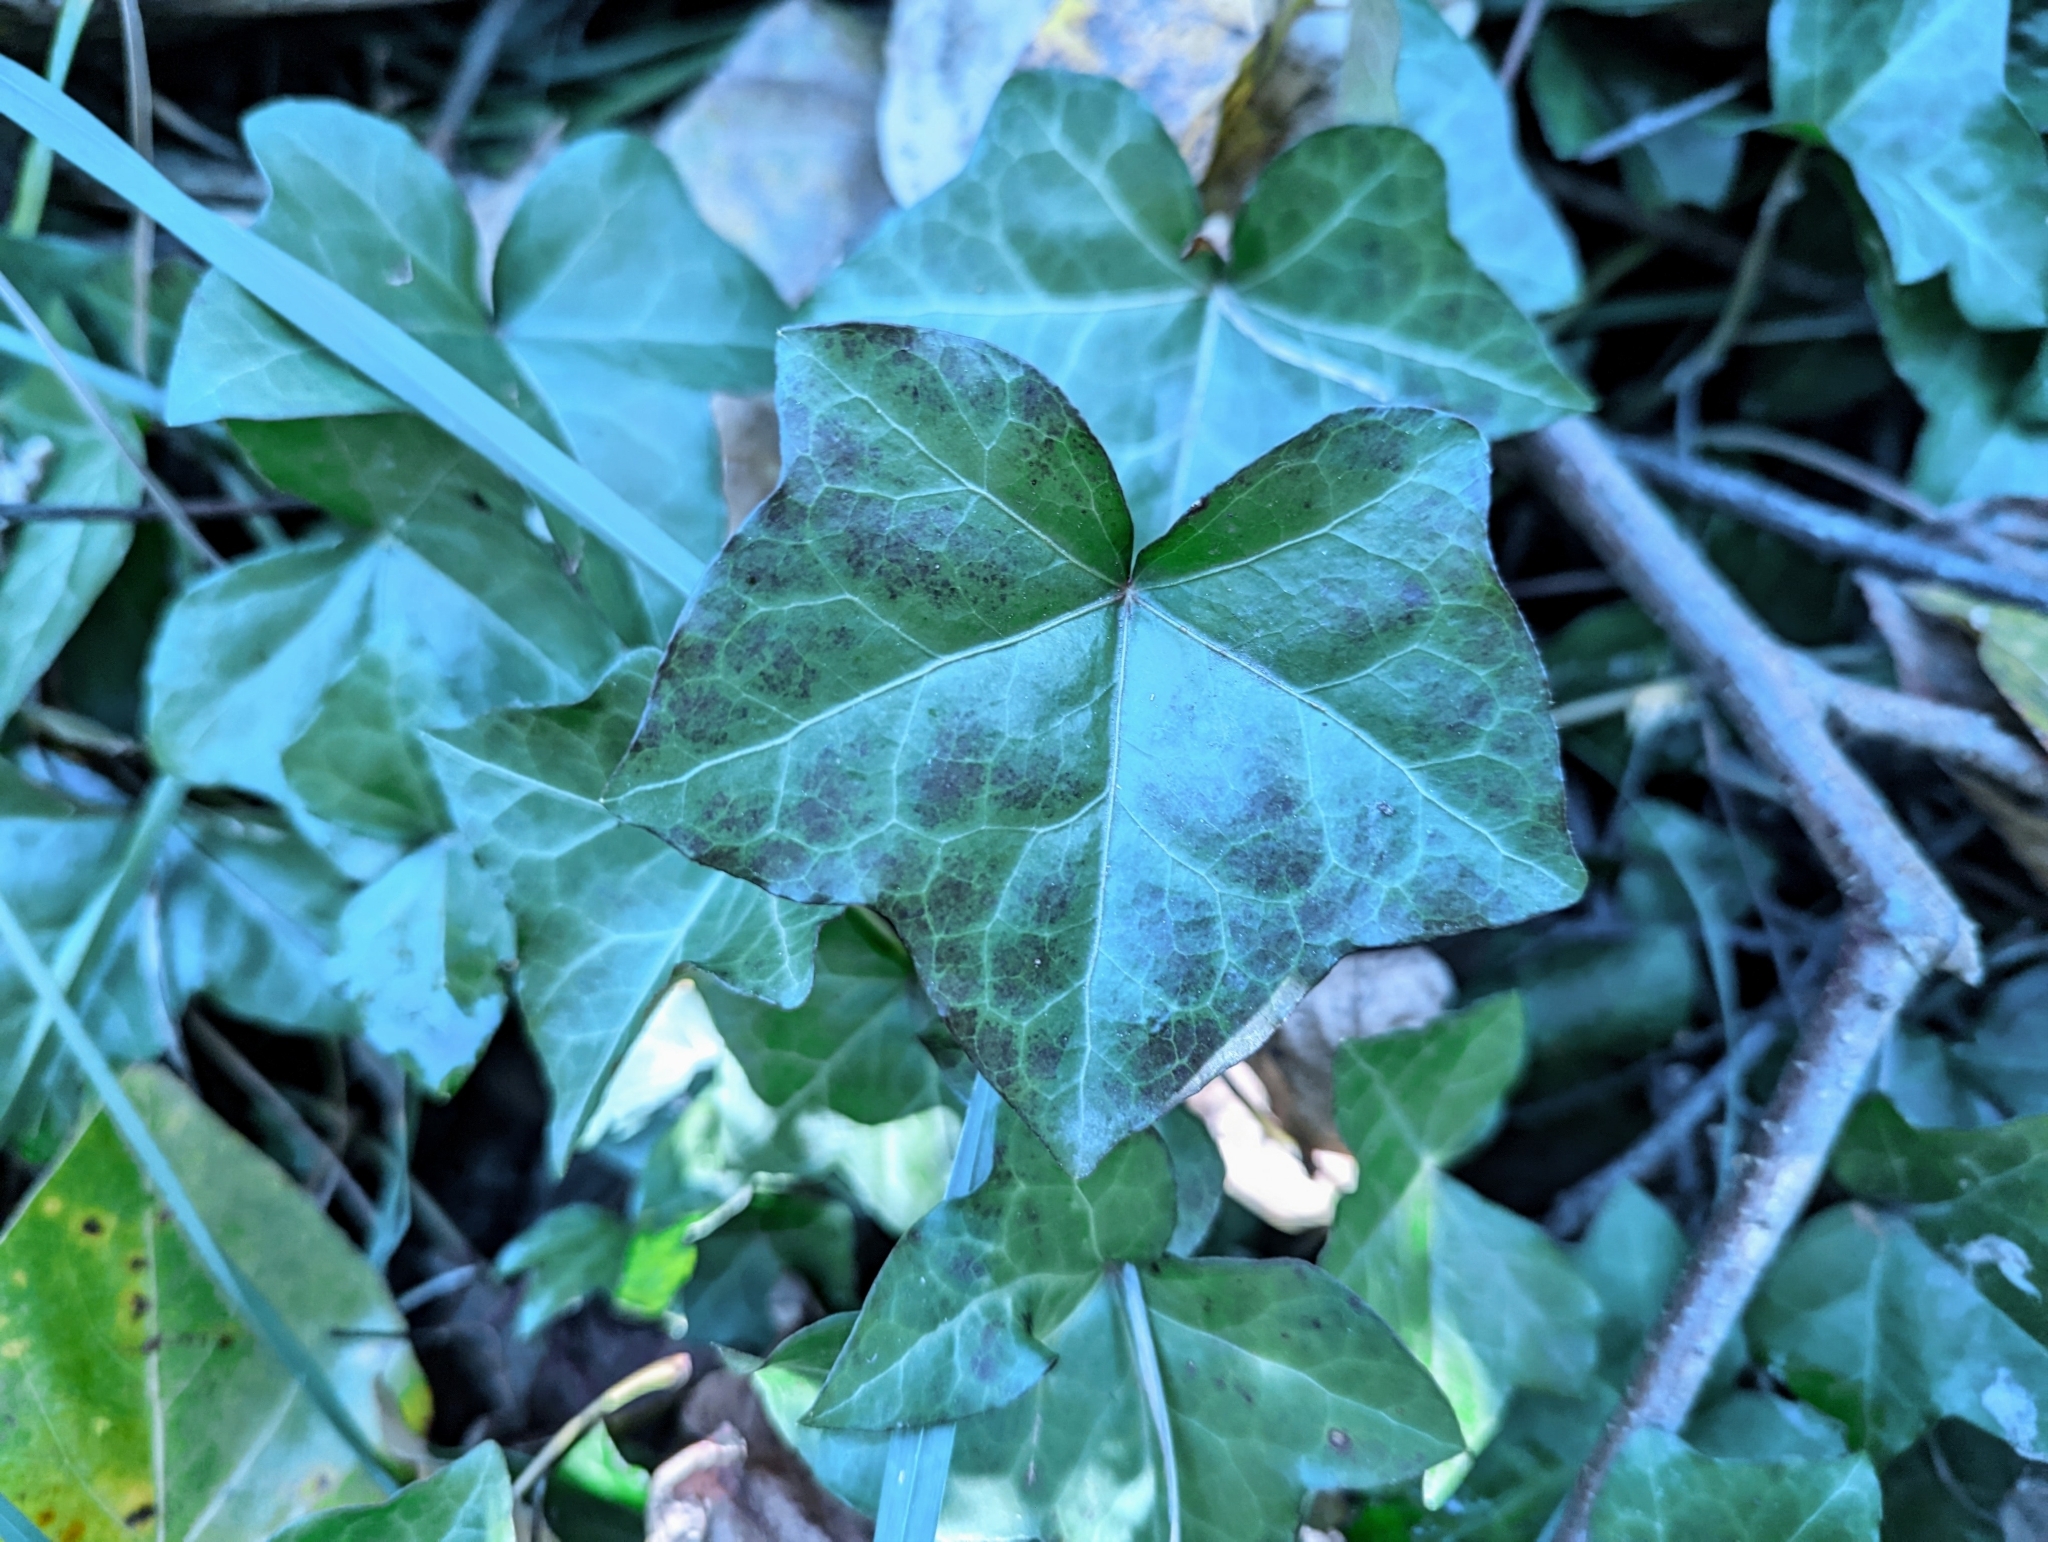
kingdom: Plantae
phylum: Tracheophyta
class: Magnoliopsida
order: Apiales
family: Araliaceae
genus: Hedera
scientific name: Hedera hibernica
